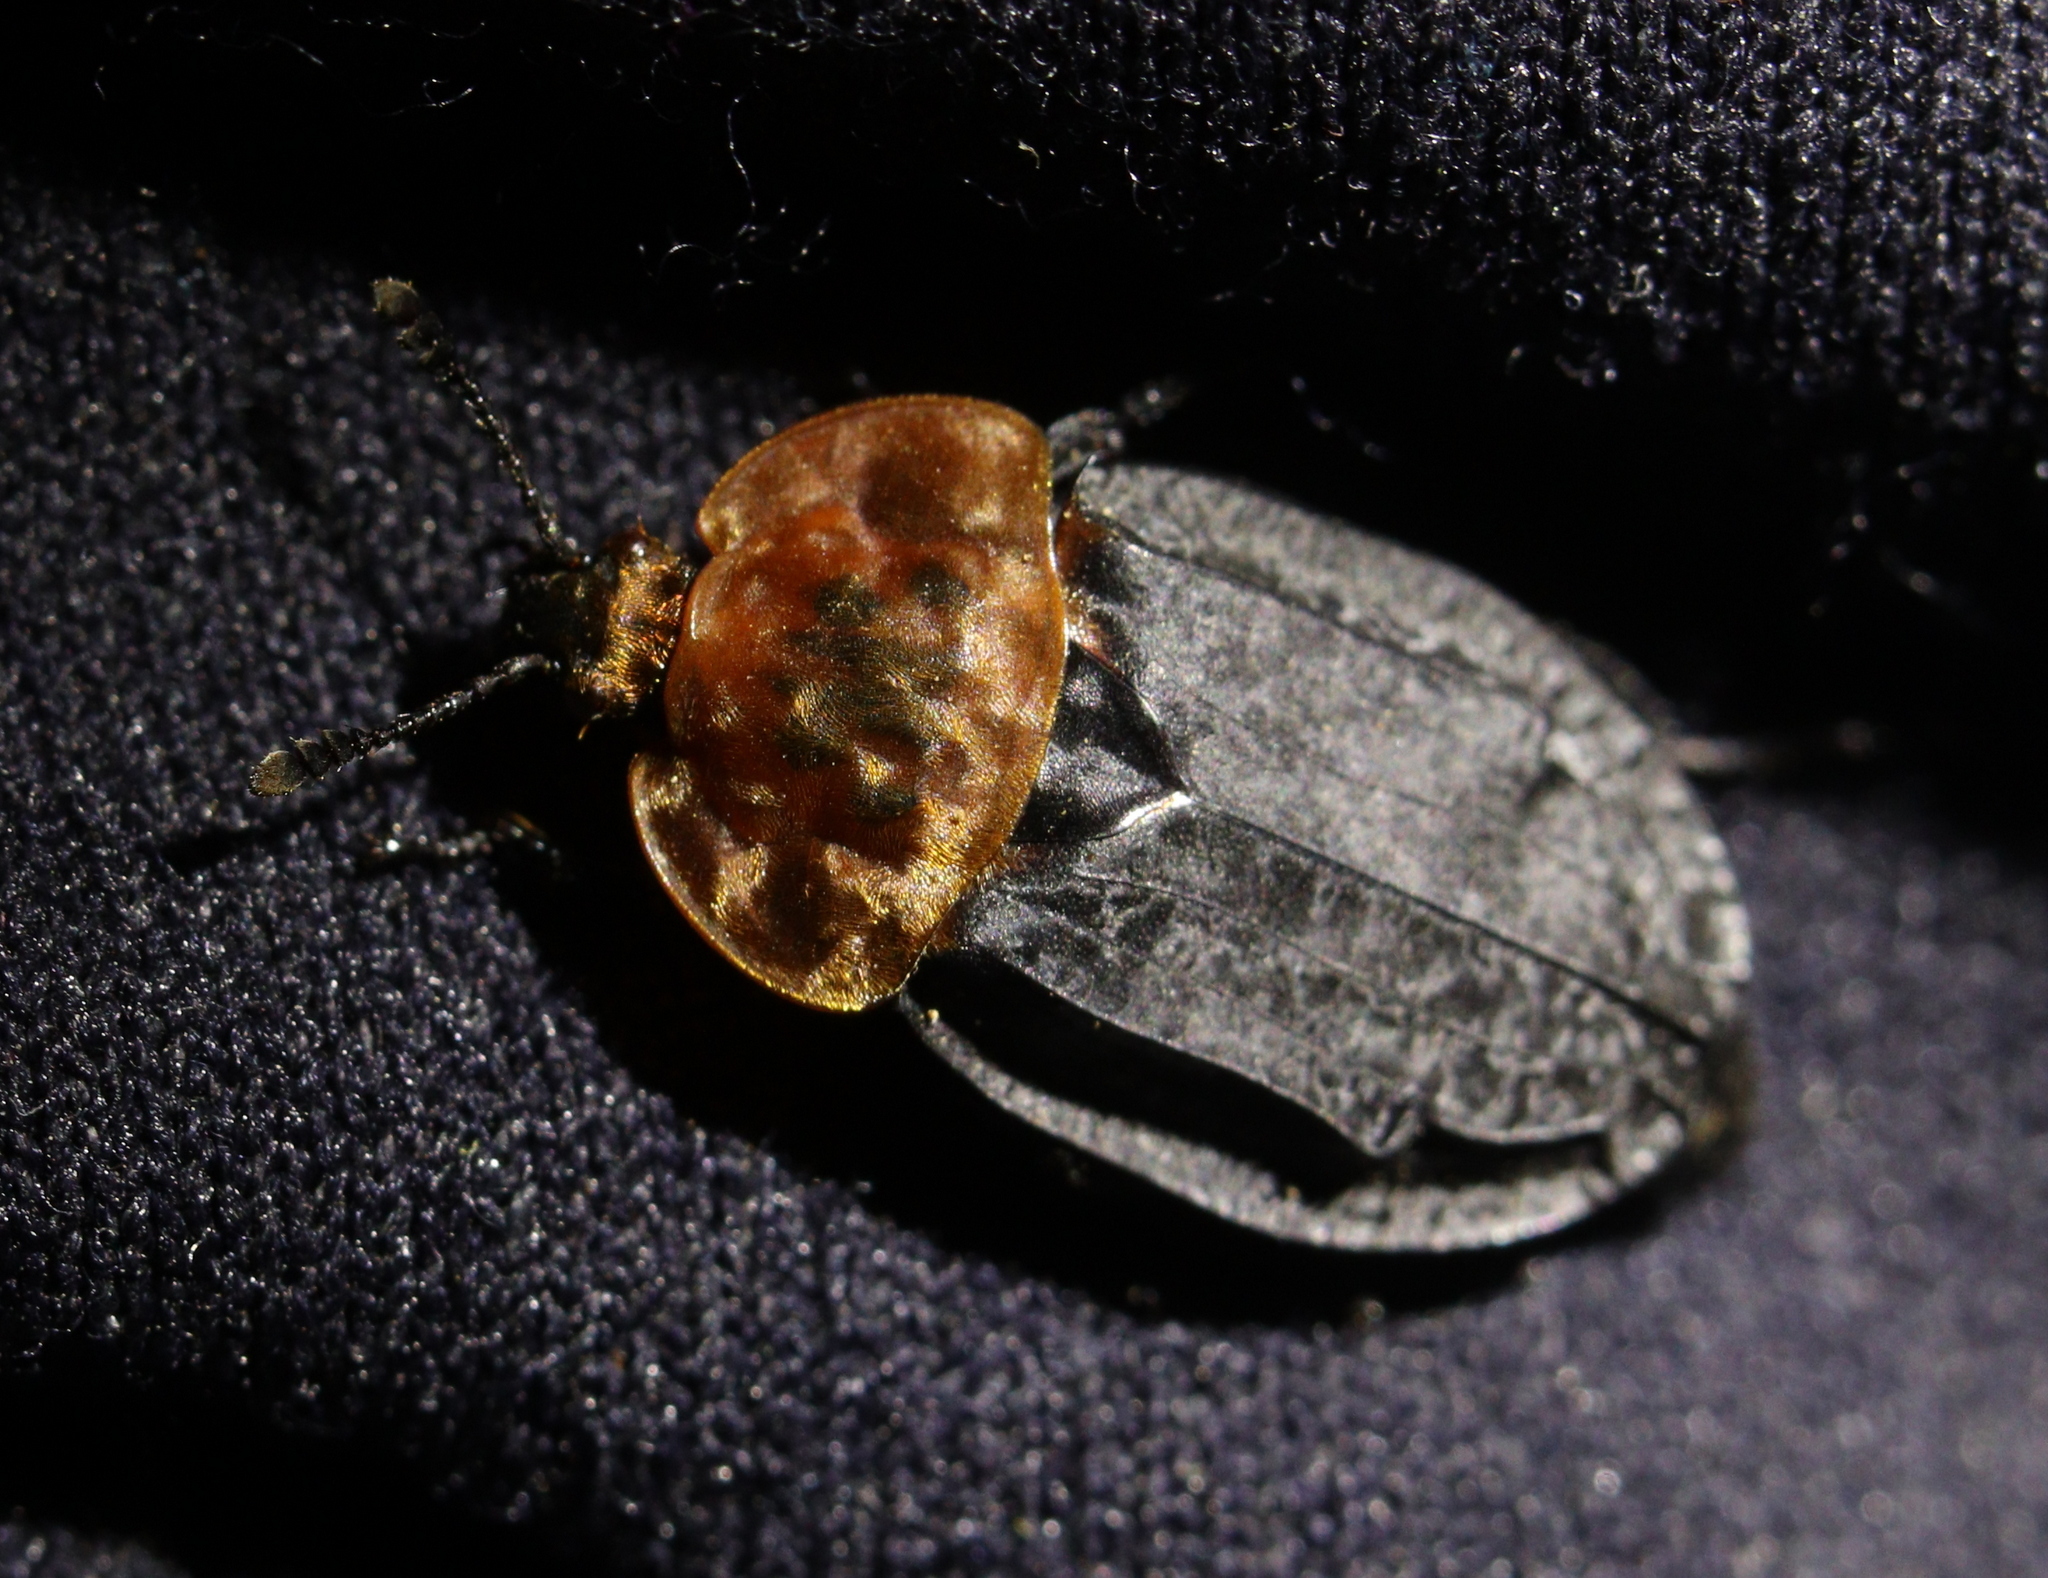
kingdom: Animalia
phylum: Arthropoda
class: Insecta
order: Coleoptera
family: Staphylinidae
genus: Oiceoptoma
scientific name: Oiceoptoma thoracicum
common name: Red-breasted carrion beetle
